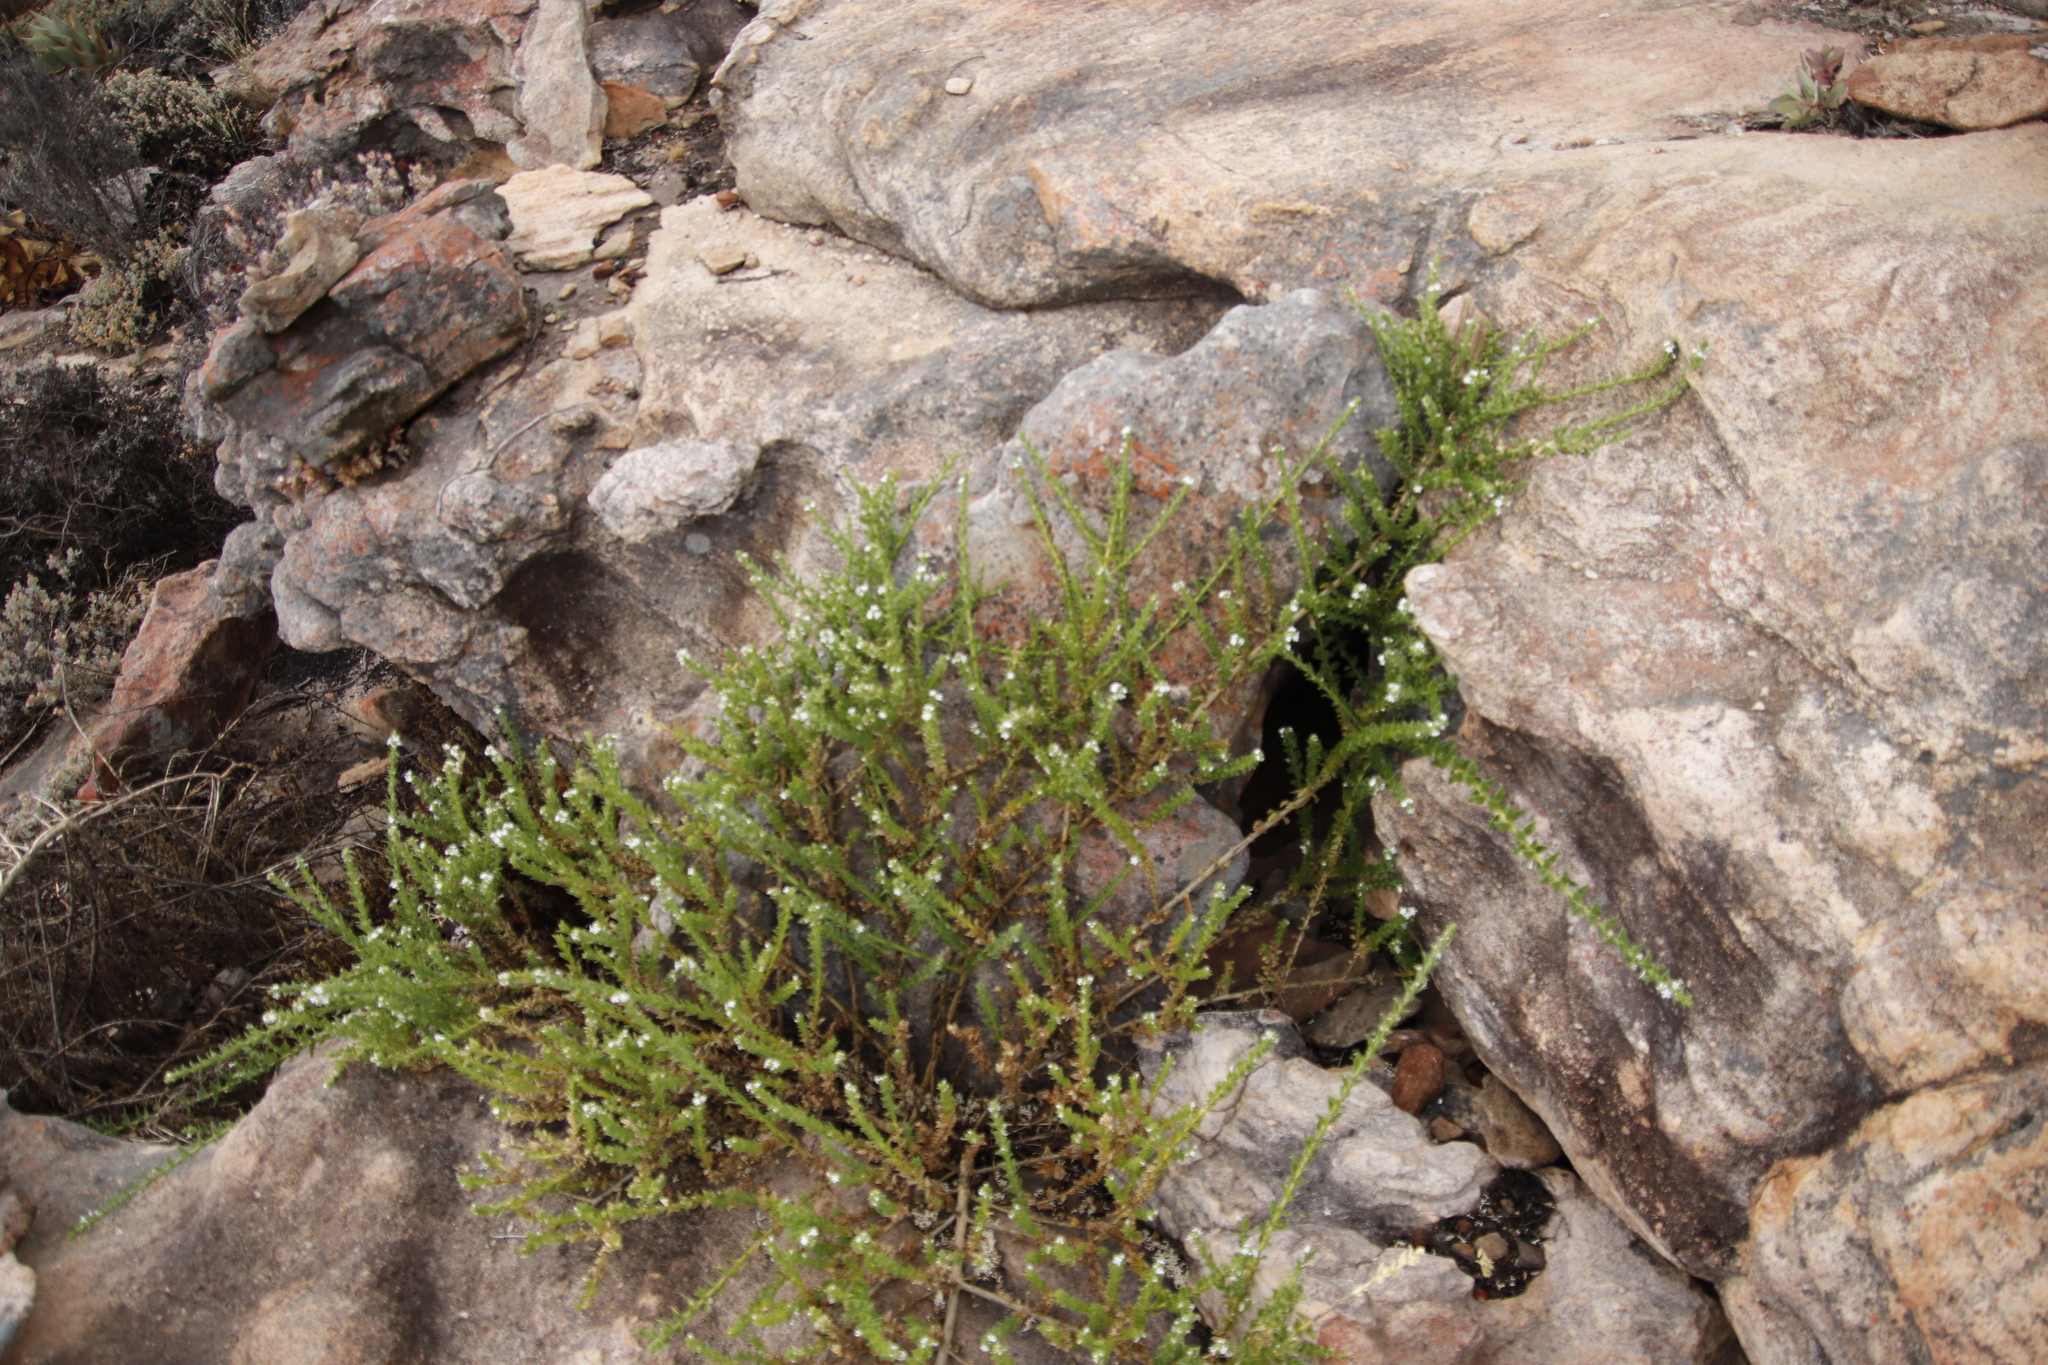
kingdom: Plantae
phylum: Tracheophyta
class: Magnoliopsida
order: Lamiales
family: Scrophulariaceae
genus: Oftia
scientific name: Oftia africana
